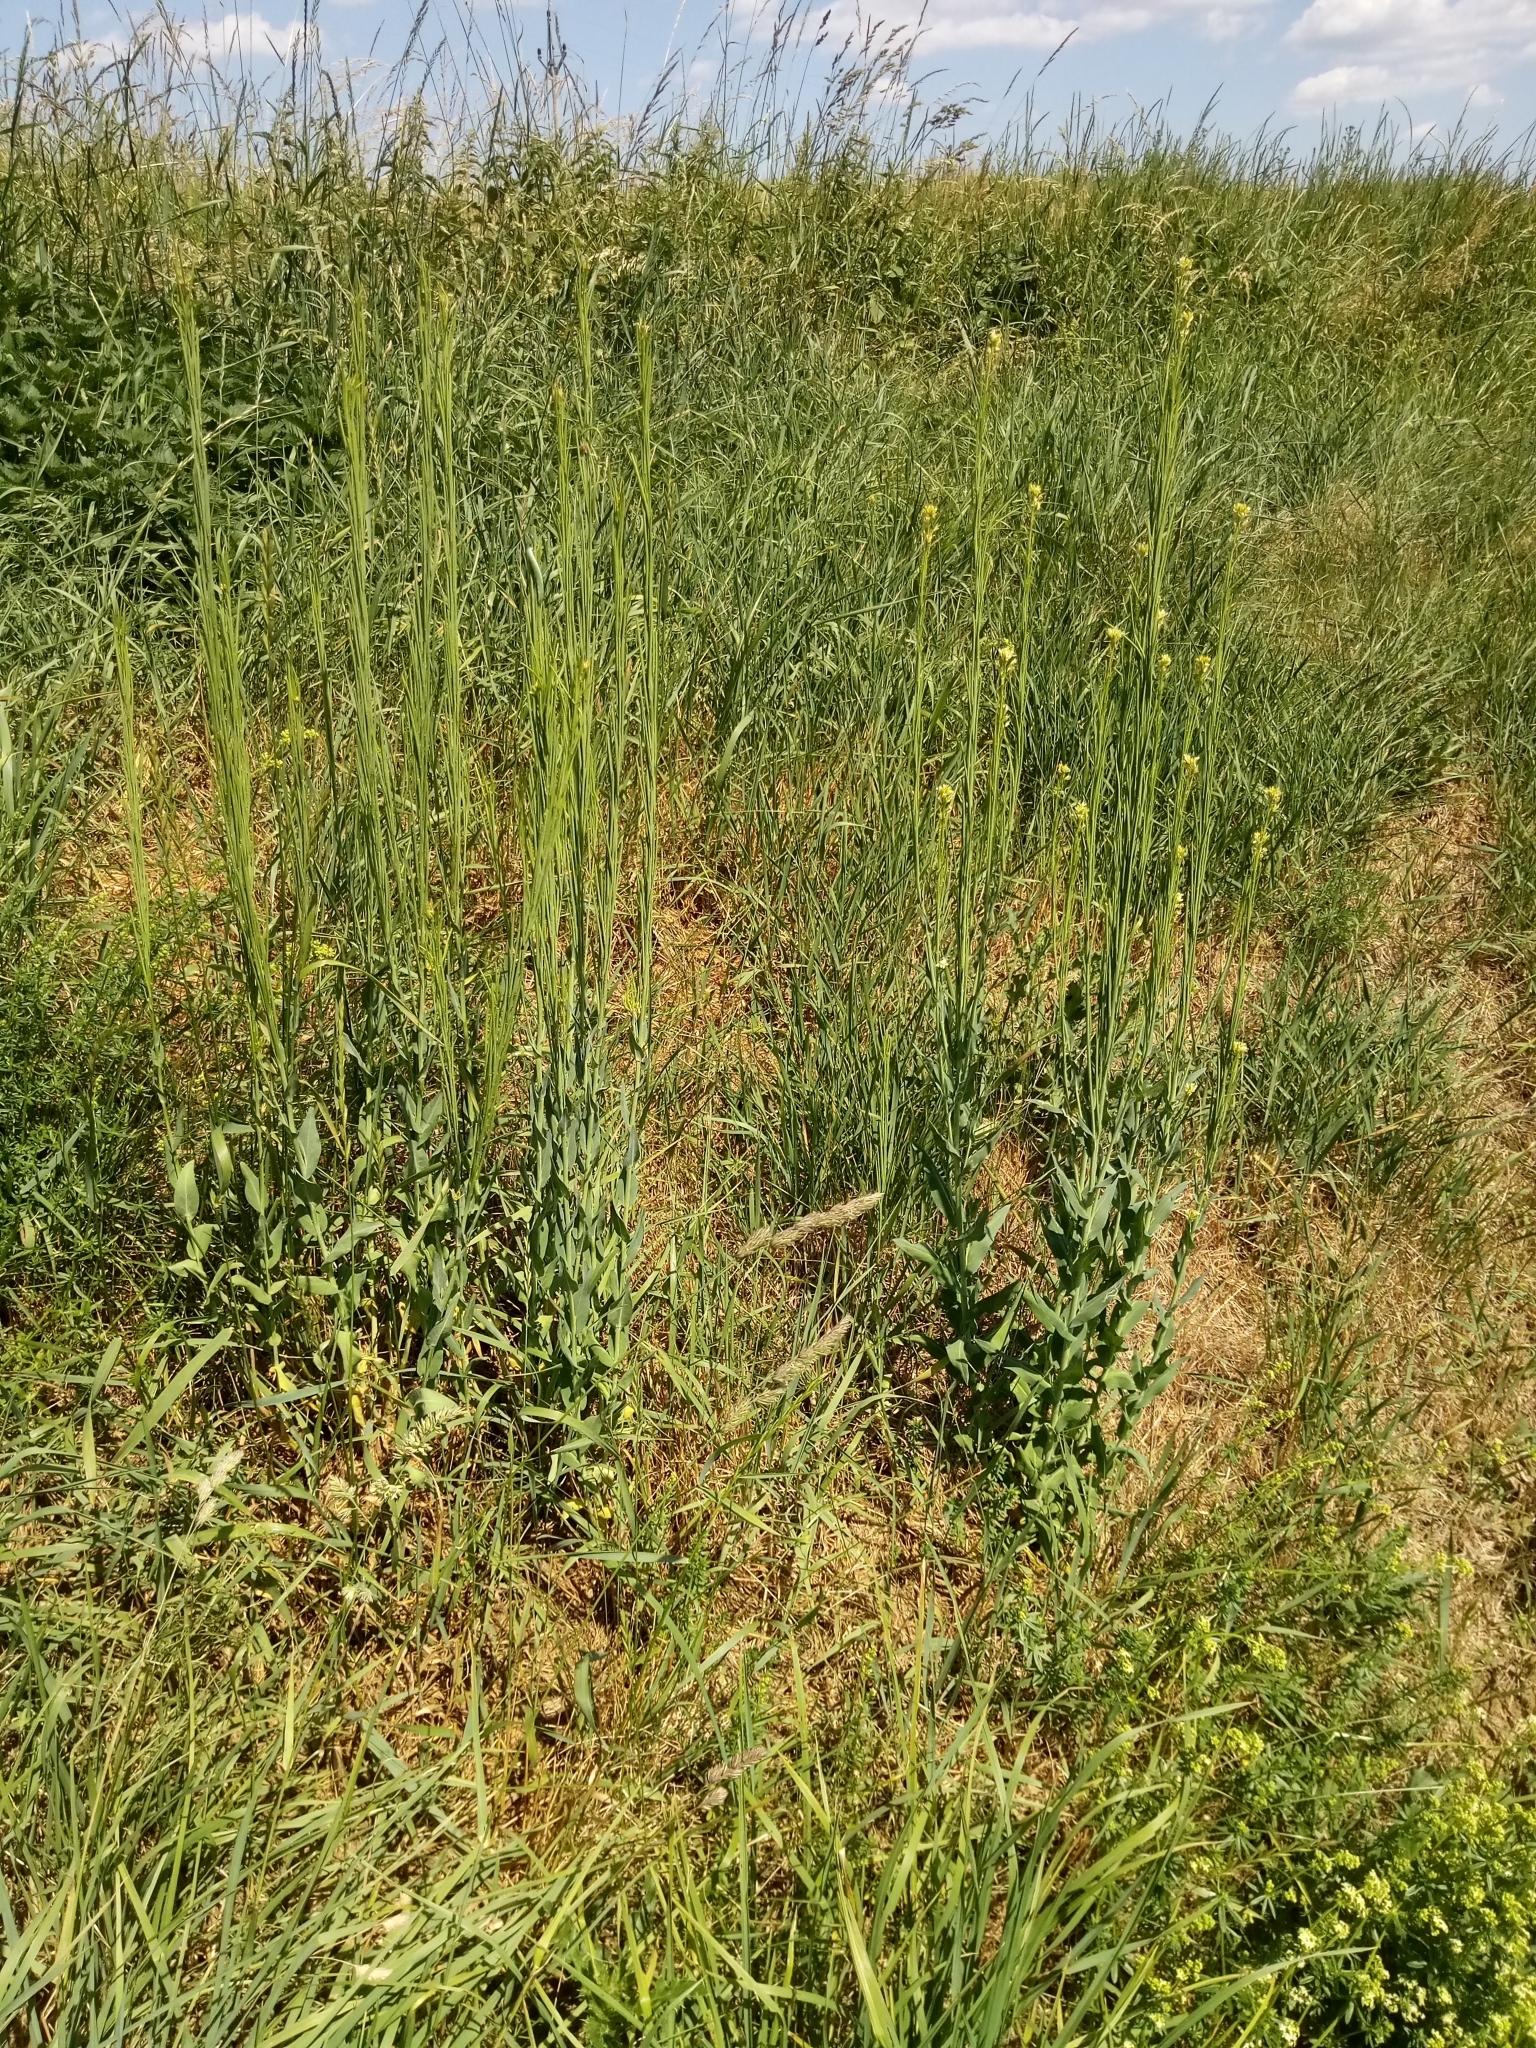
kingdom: Plantae
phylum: Tracheophyta
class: Magnoliopsida
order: Brassicales
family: Brassicaceae
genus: Turritis
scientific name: Turritis glabra
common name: Tower rockcress
